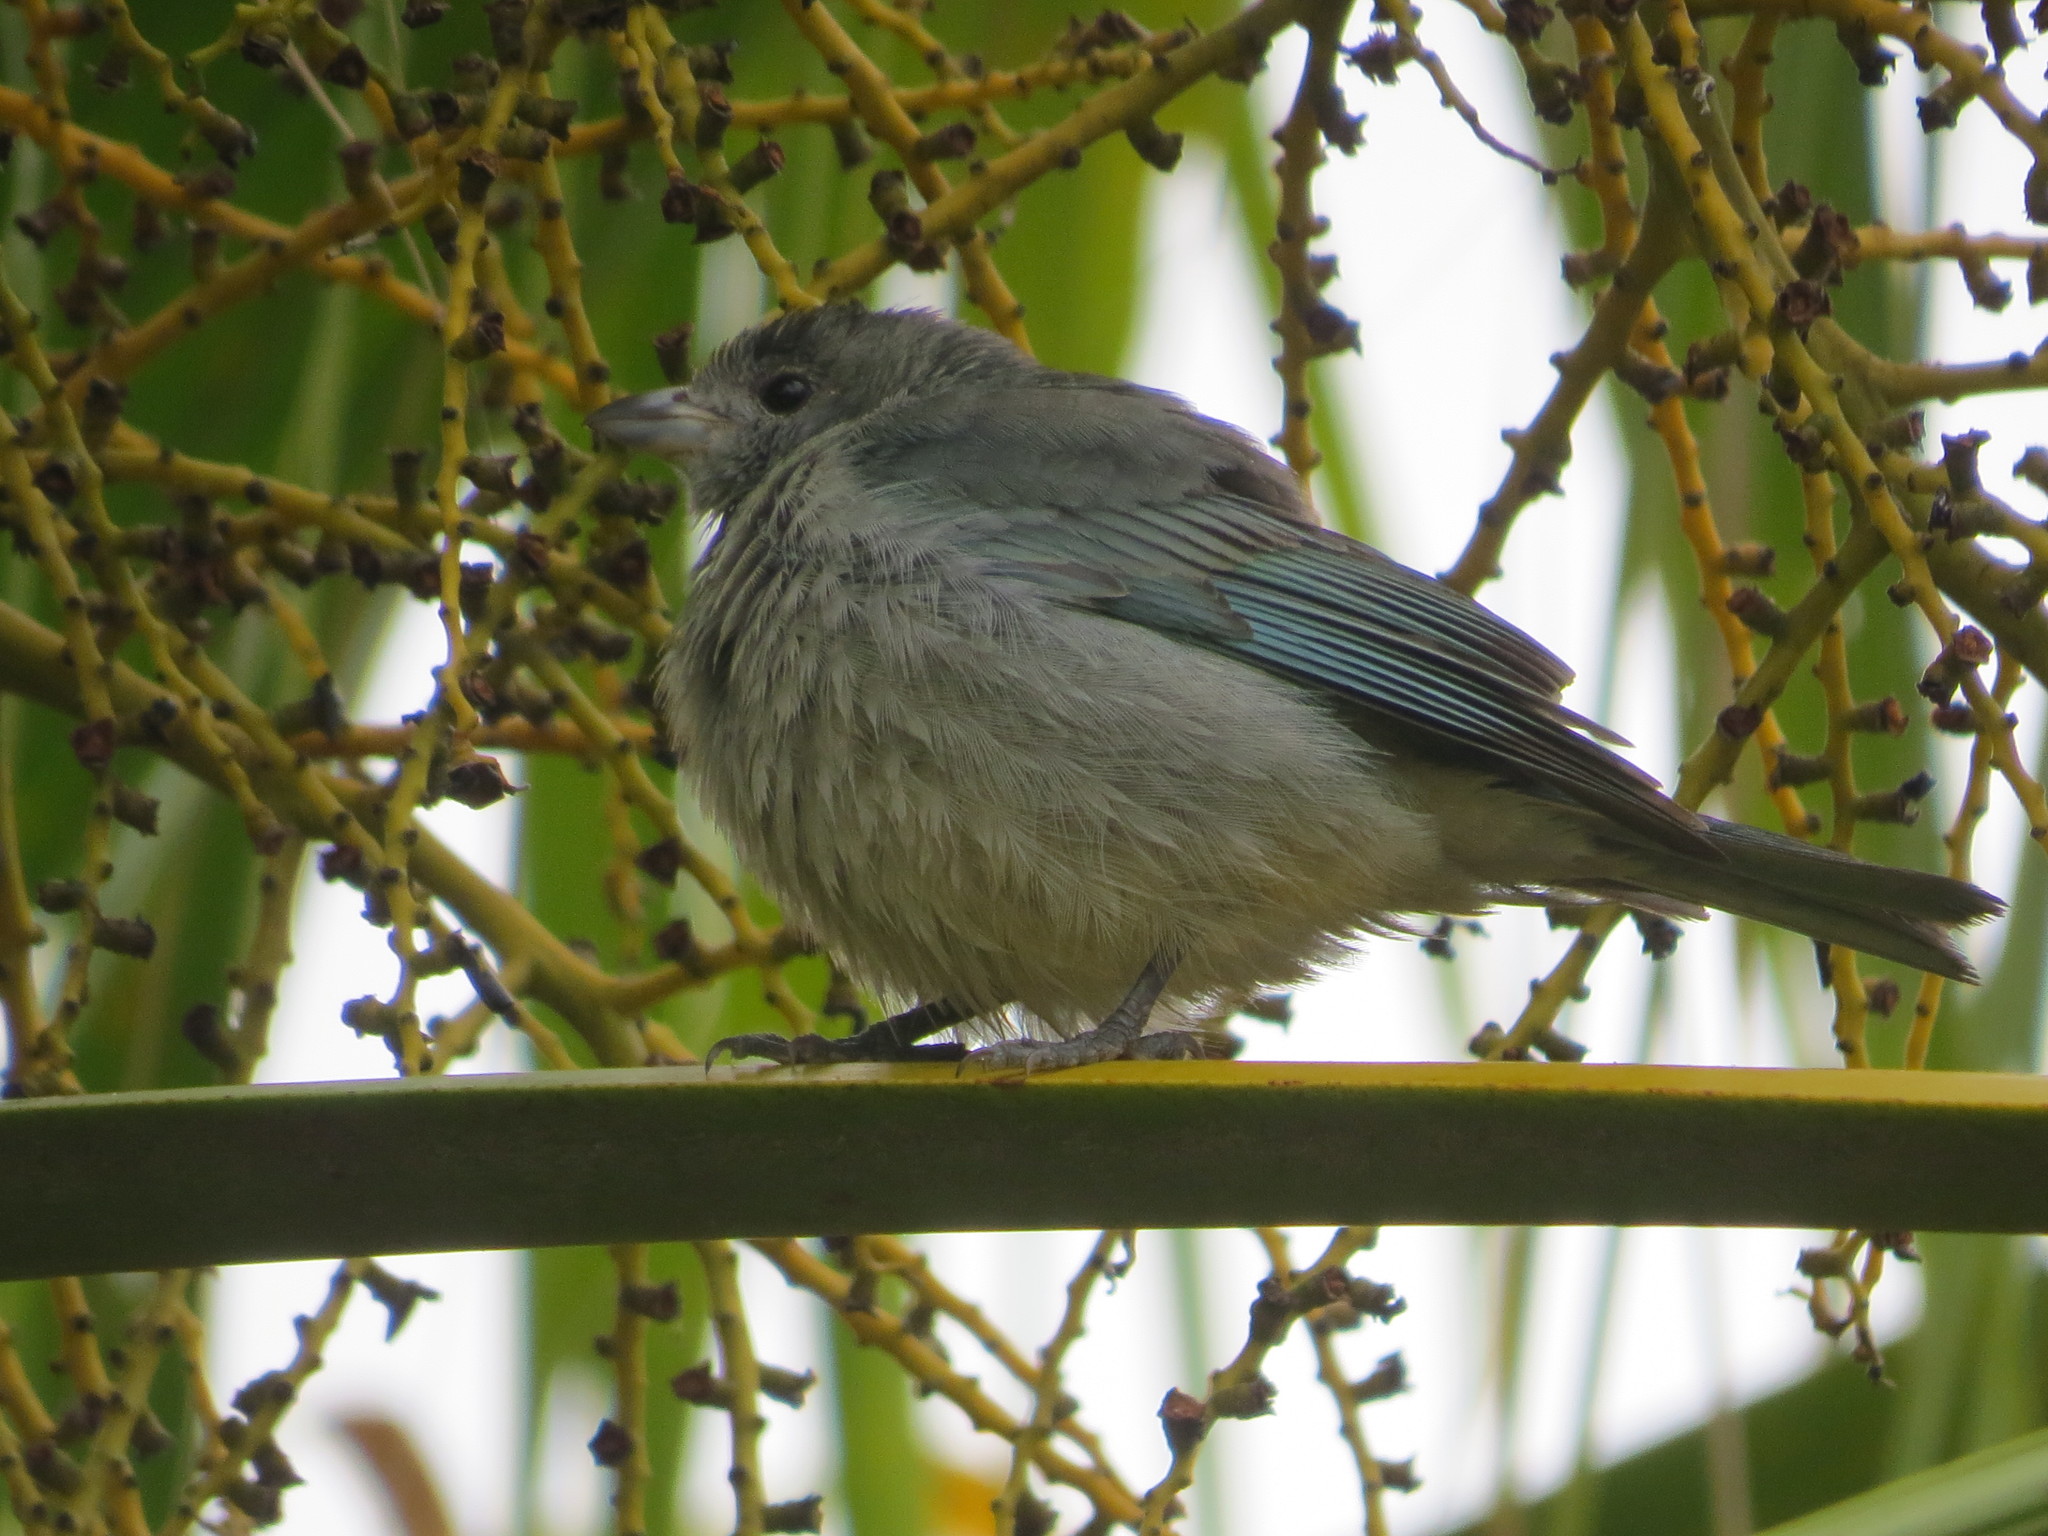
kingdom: Animalia
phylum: Chordata
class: Aves
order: Passeriformes
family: Thraupidae
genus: Thraupis
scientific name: Thraupis sayaca
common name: Sayaca tanager
